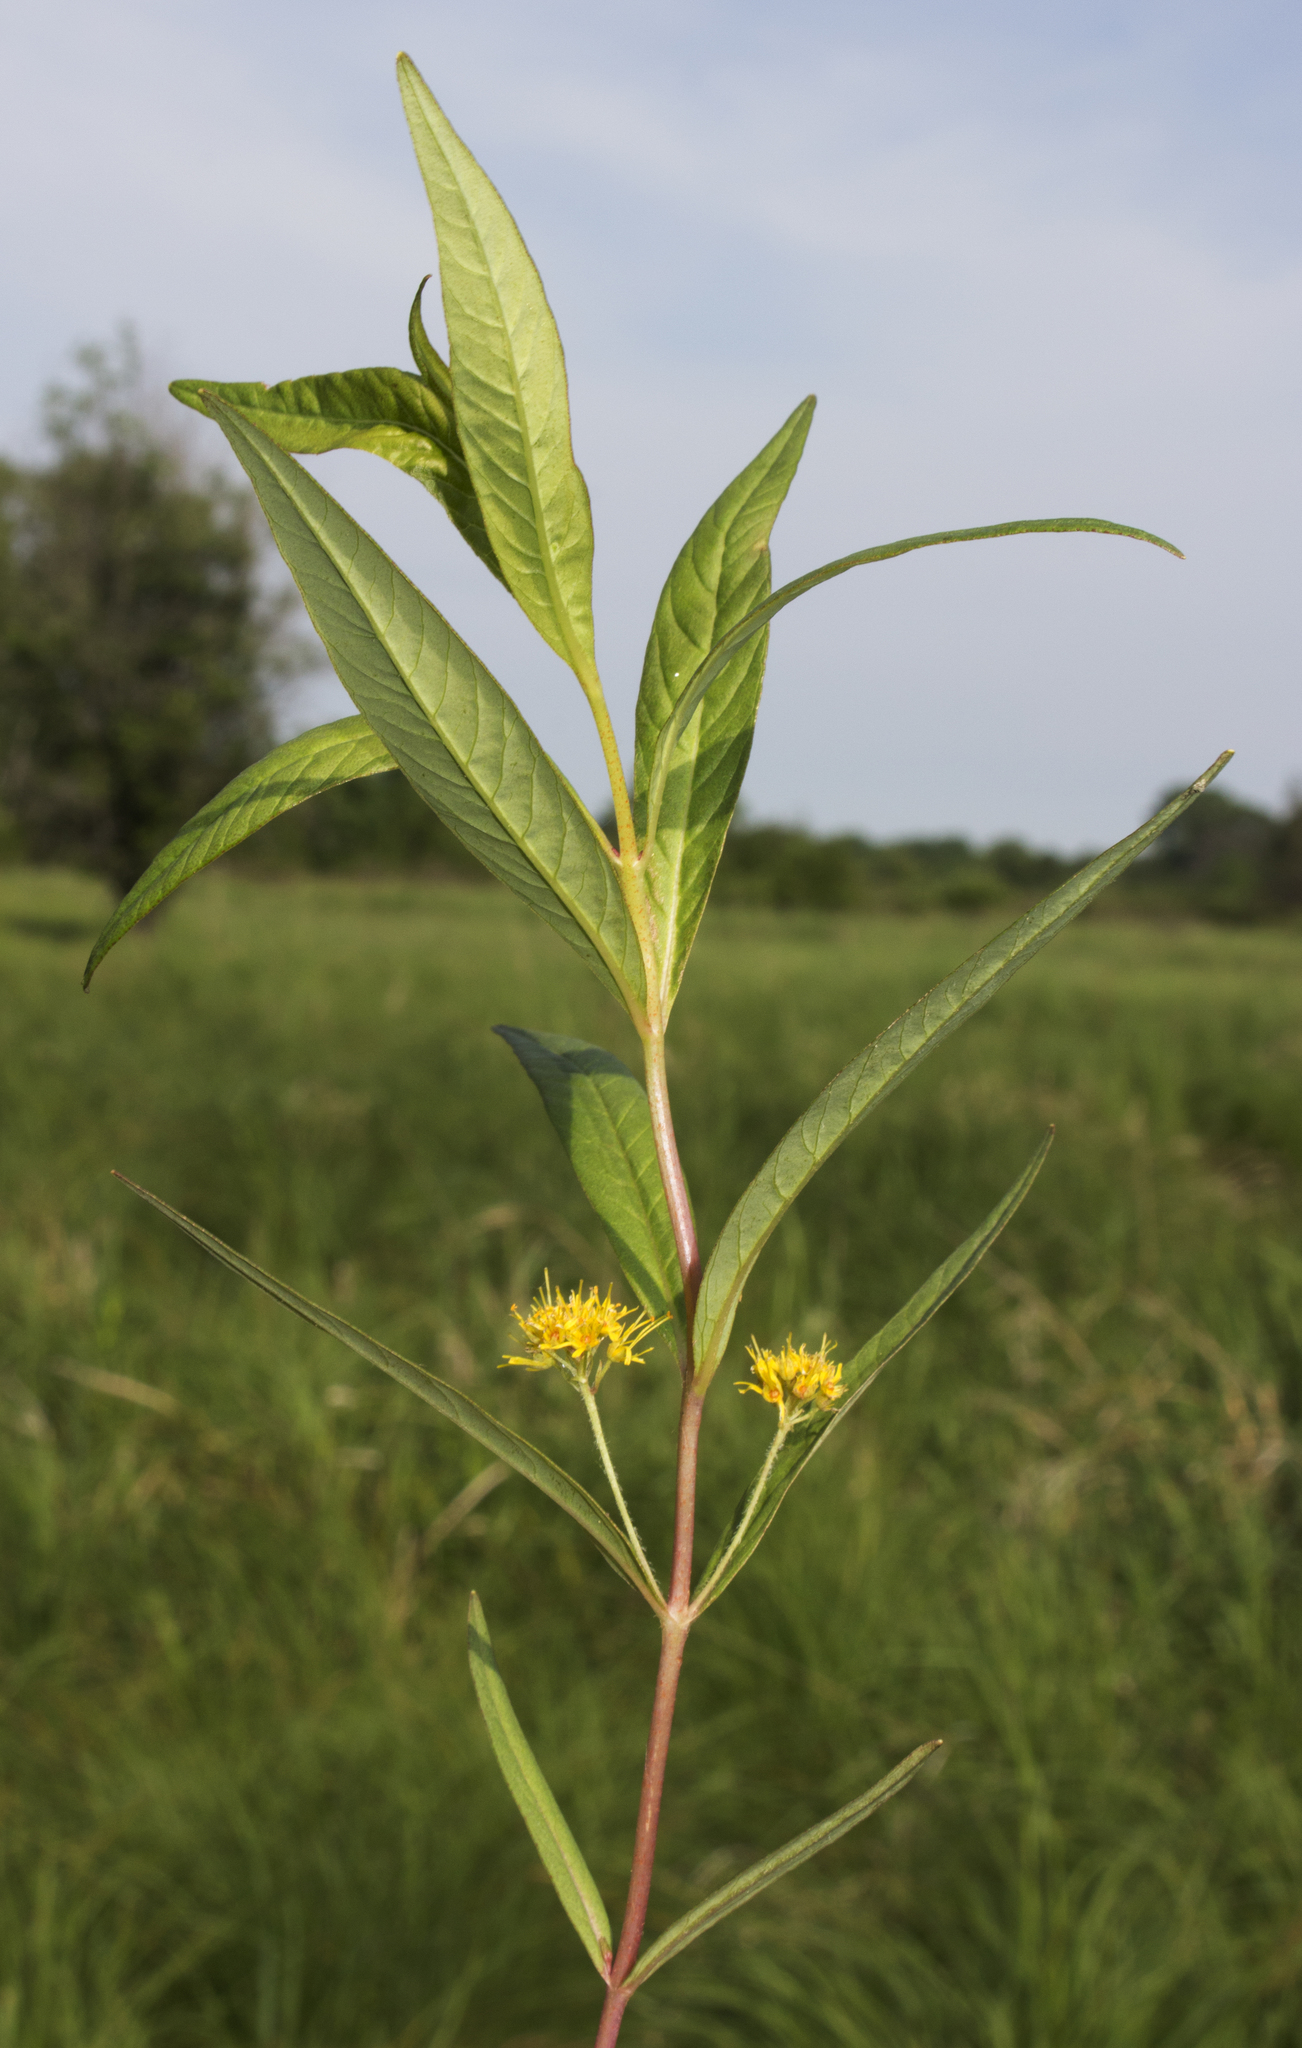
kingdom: Plantae
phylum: Tracheophyta
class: Magnoliopsida
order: Ericales
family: Primulaceae
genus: Lysimachia
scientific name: Lysimachia thyrsiflora
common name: Tufted loosestrife
